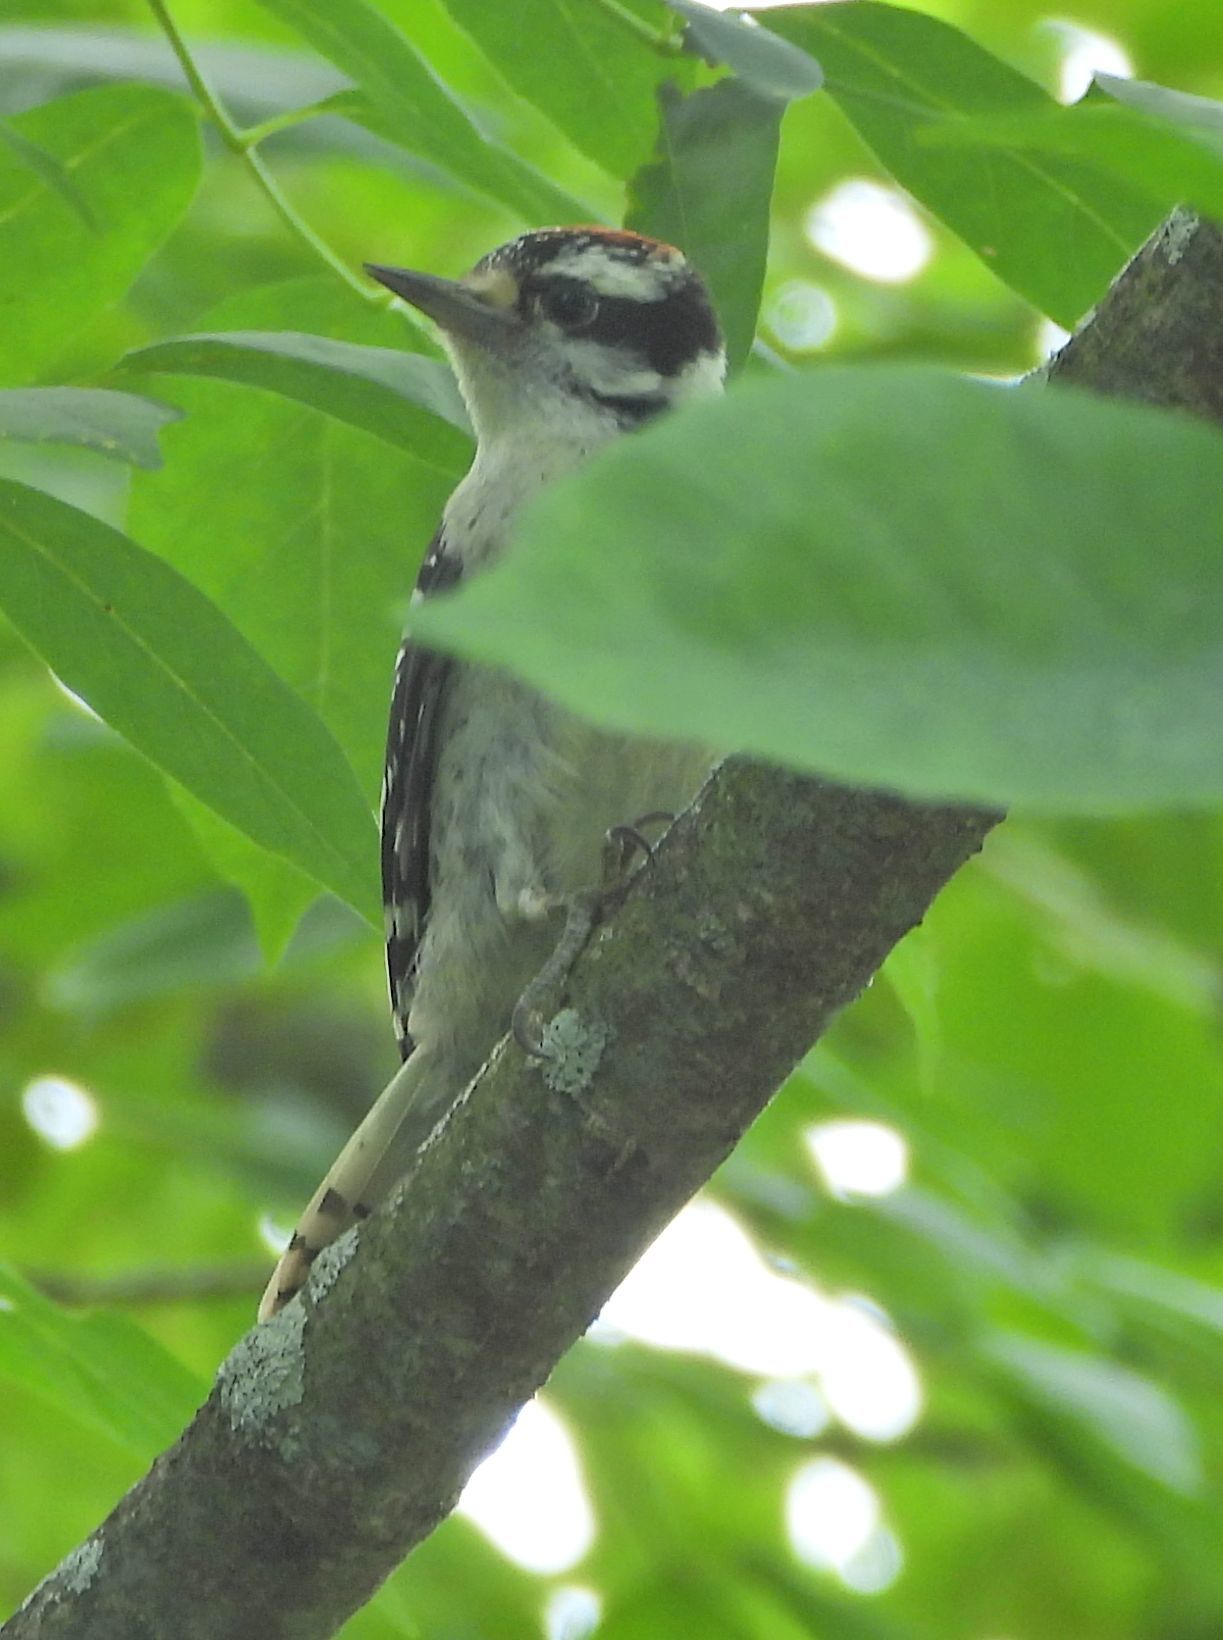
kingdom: Animalia
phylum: Chordata
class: Aves
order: Piciformes
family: Picidae
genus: Dryobates
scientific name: Dryobates pubescens
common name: Downy woodpecker
